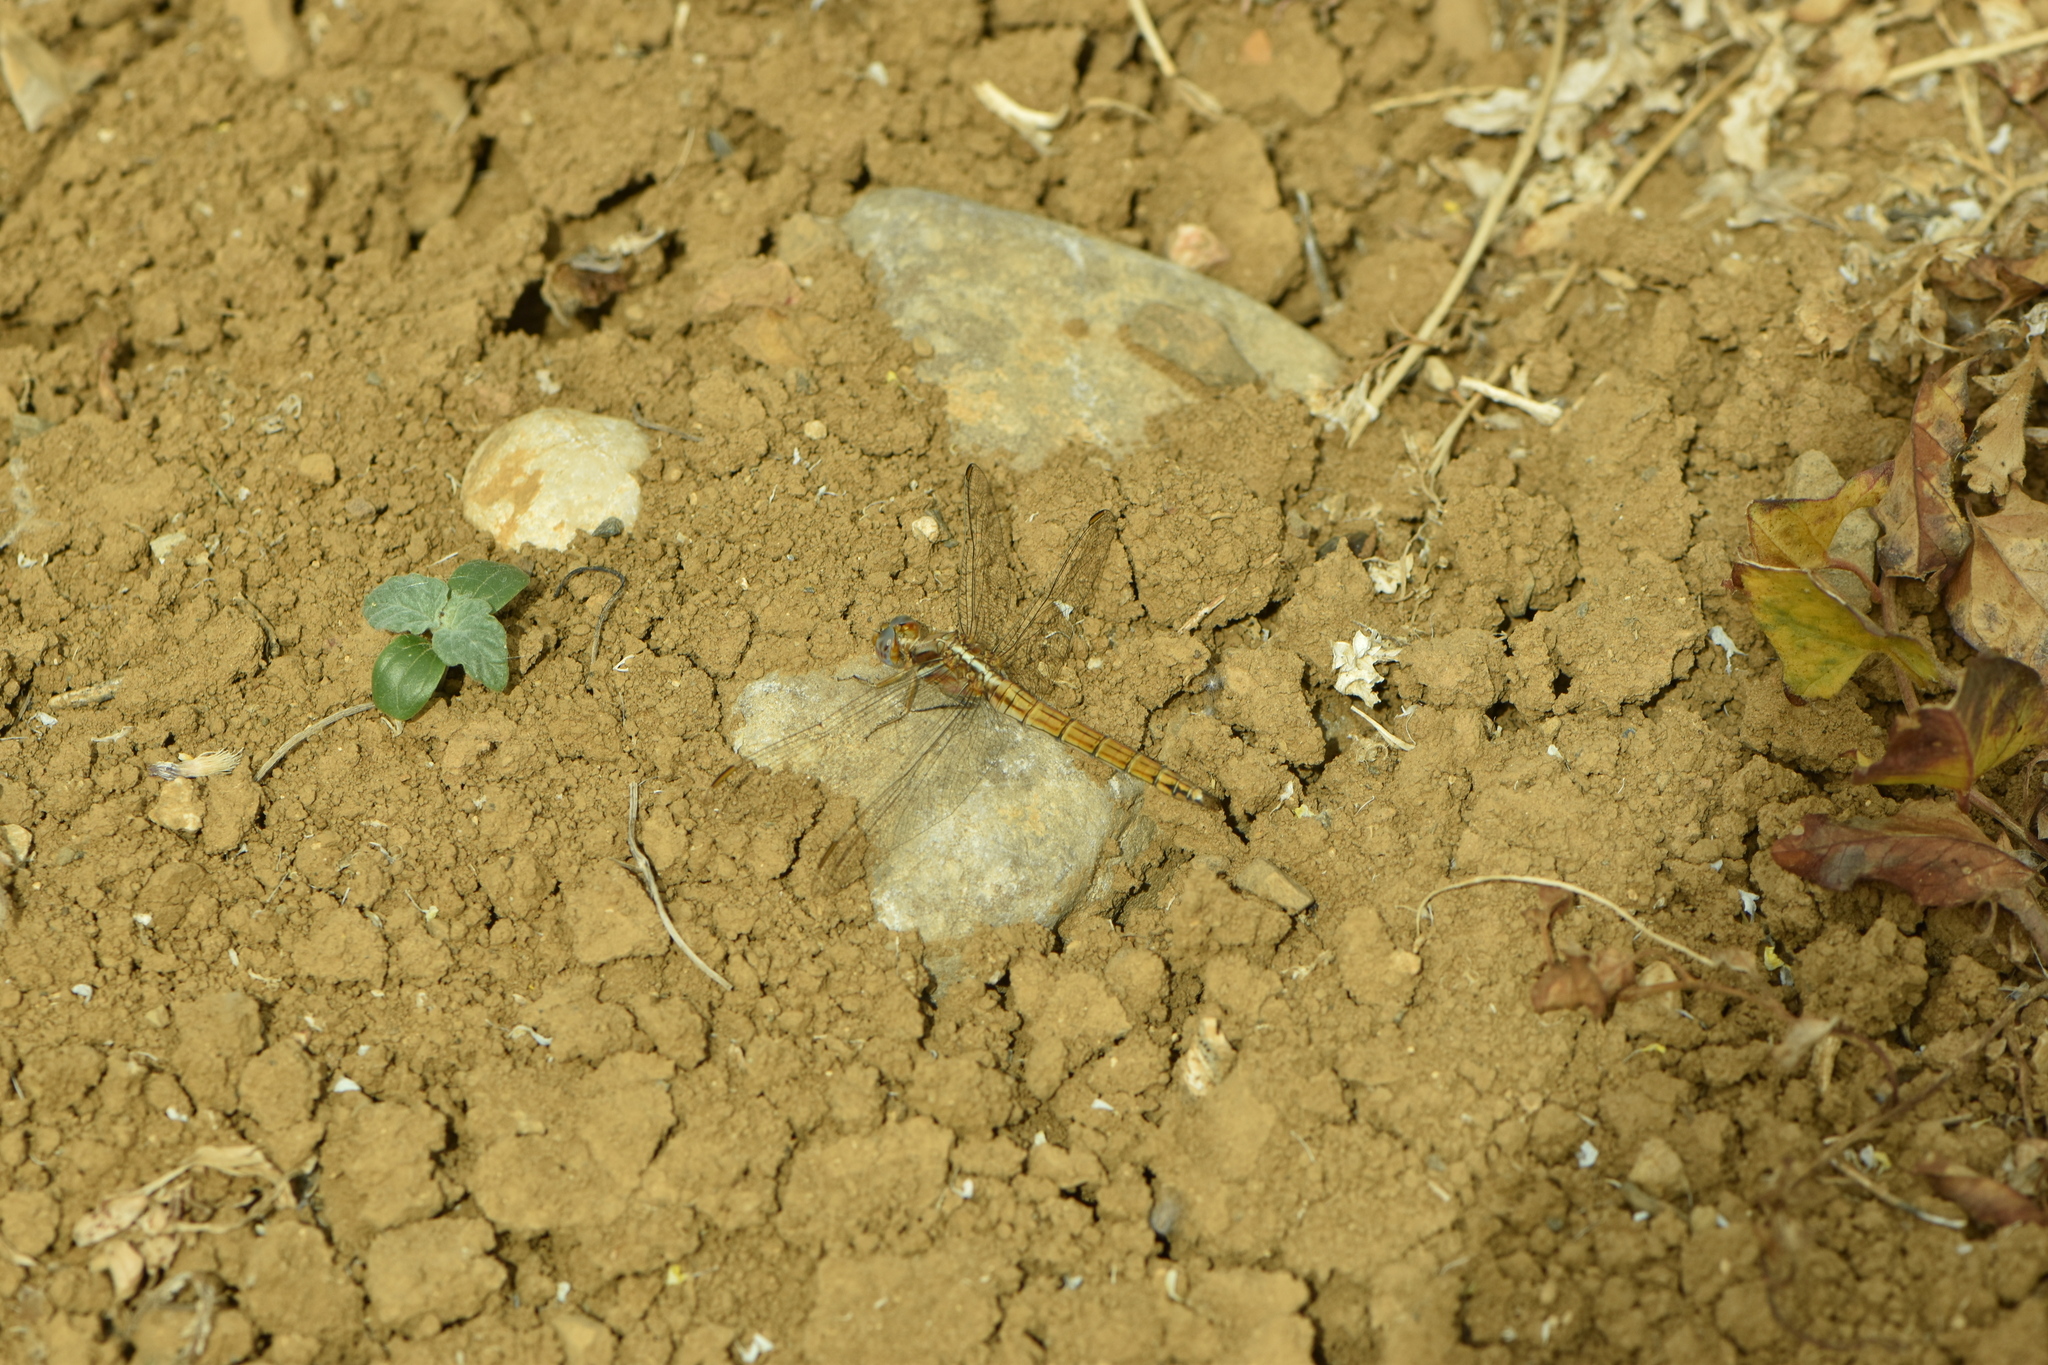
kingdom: Animalia
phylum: Arthropoda
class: Insecta
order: Odonata
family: Libellulidae
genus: Orthetrum
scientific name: Orthetrum chrysostigma
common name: Epaulet skimmer
